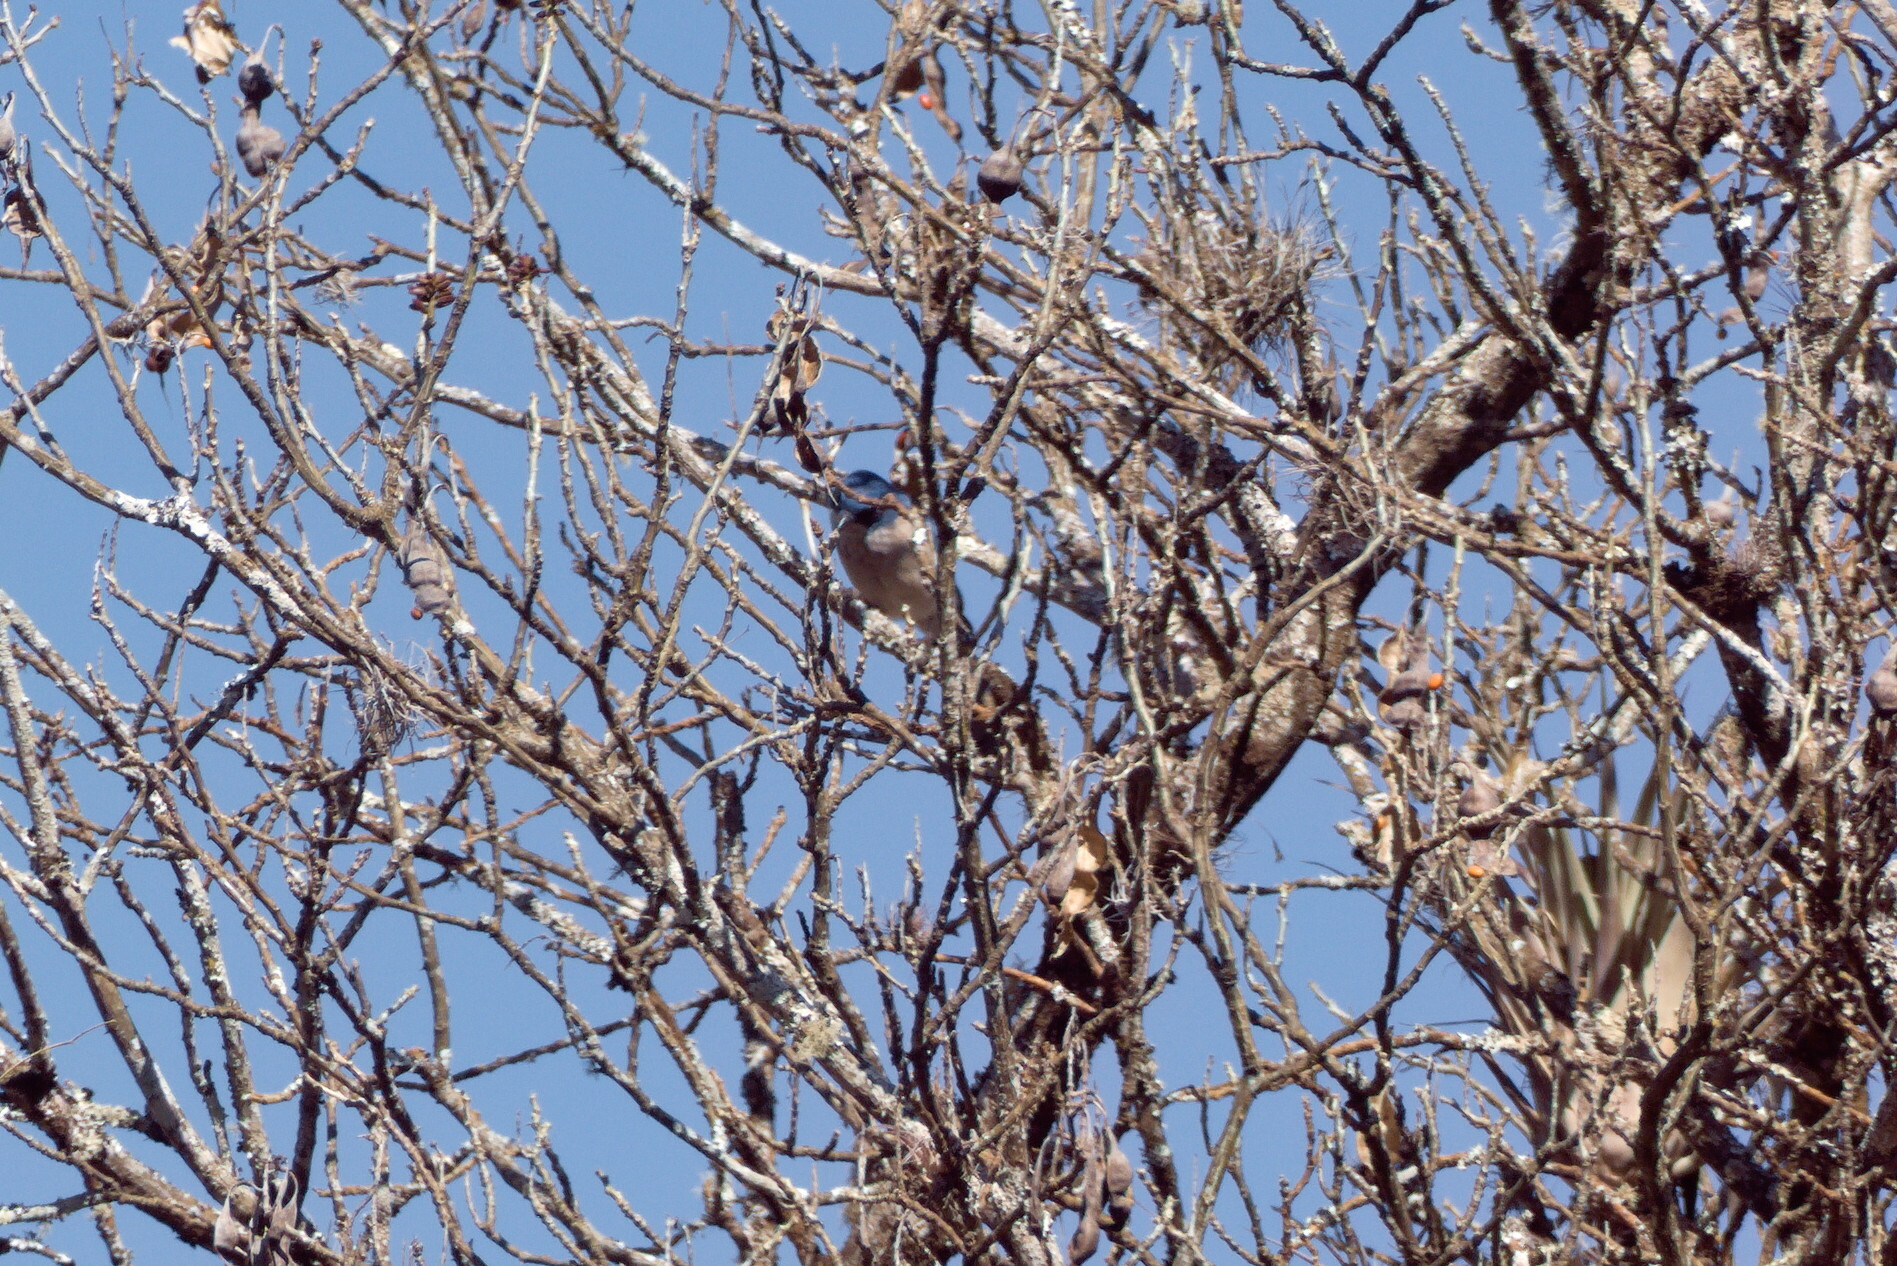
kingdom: Animalia
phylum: Chordata
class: Aves
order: Passeriformes
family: Corvidae
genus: Aphelocoma
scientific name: Aphelocoma woodhouseii
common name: Woodhouse's scrub-jay
